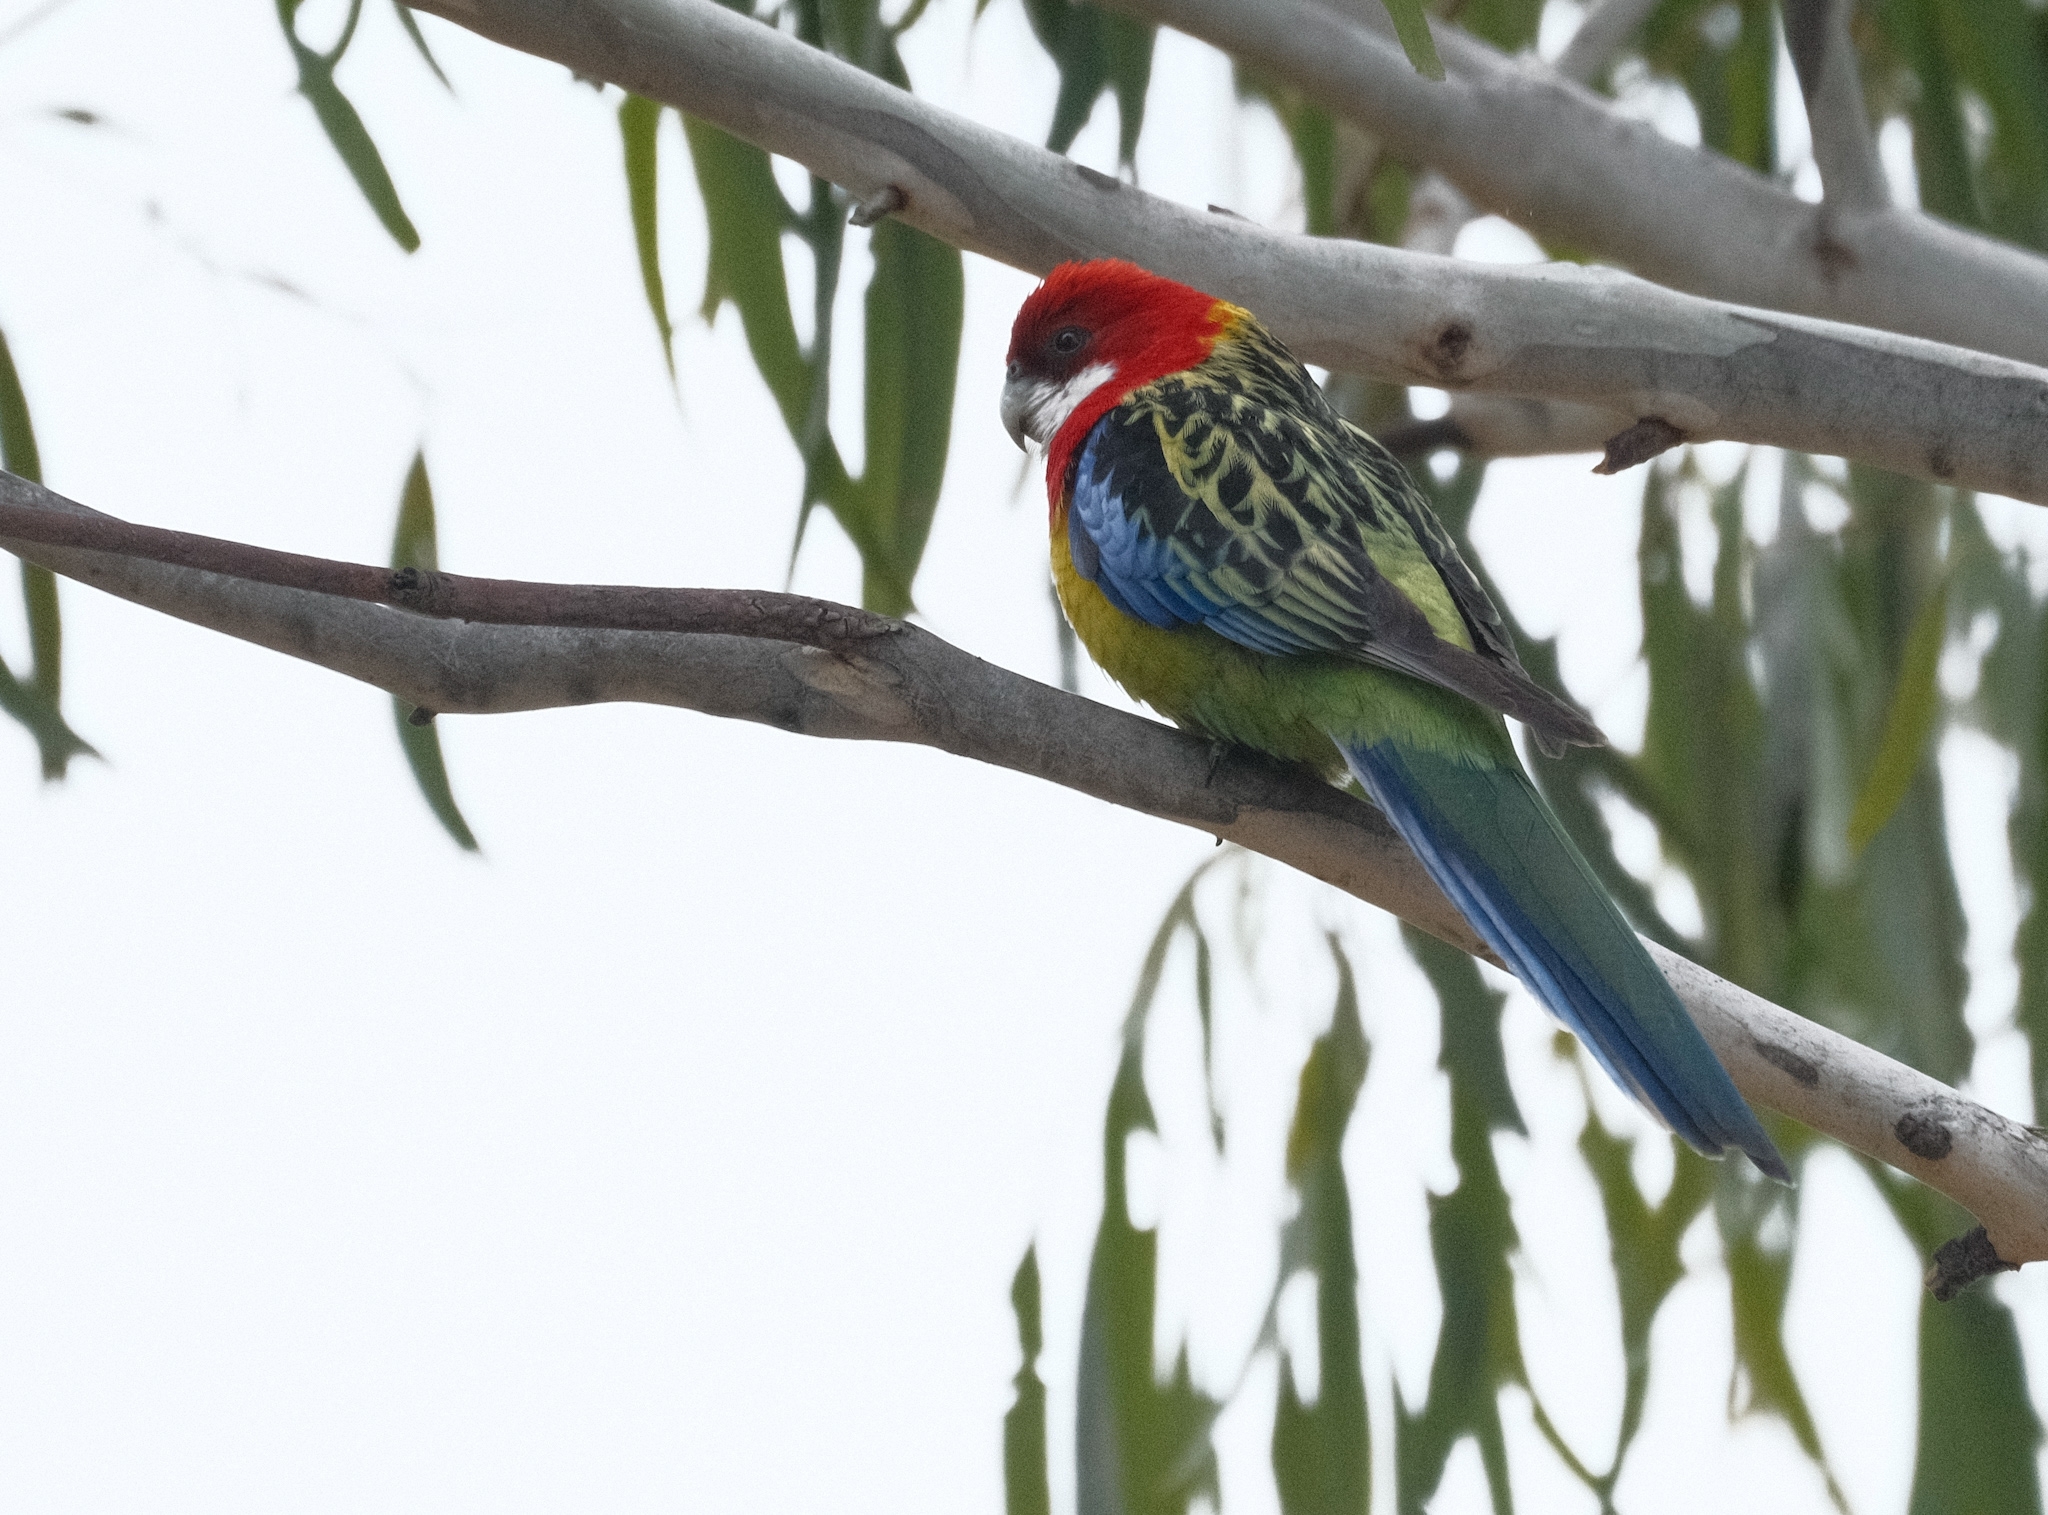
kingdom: Animalia
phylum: Chordata
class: Aves
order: Psittaciformes
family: Psittacidae
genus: Platycercus
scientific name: Platycercus eximius
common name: Eastern rosella
